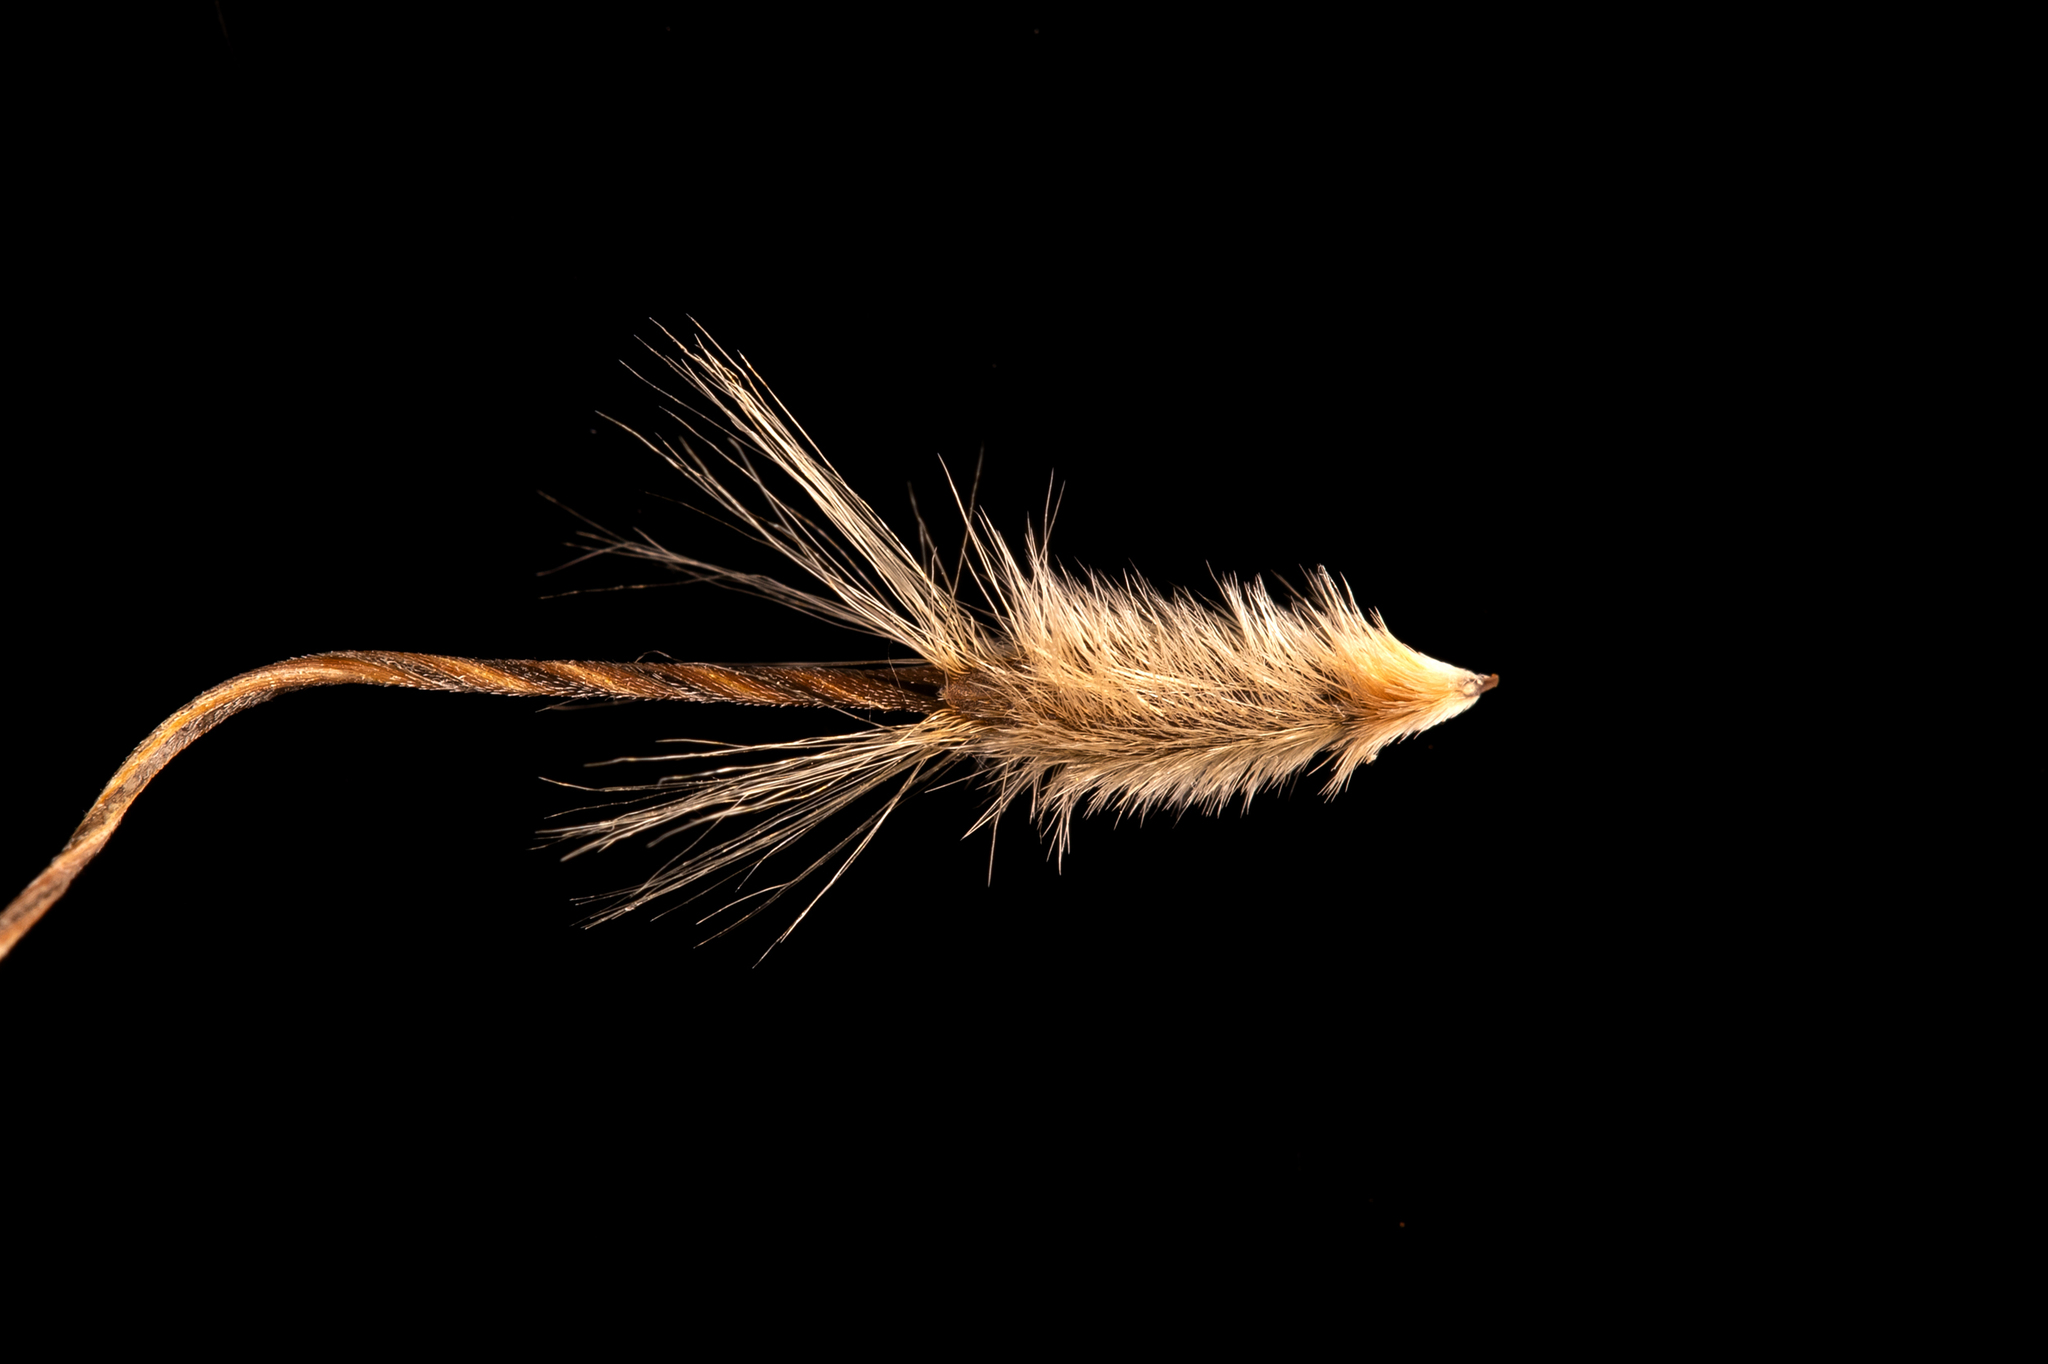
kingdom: Plantae
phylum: Tracheophyta
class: Liliopsida
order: Poales
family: Poaceae
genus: Austrostipa
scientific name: Austrostipa blackii
